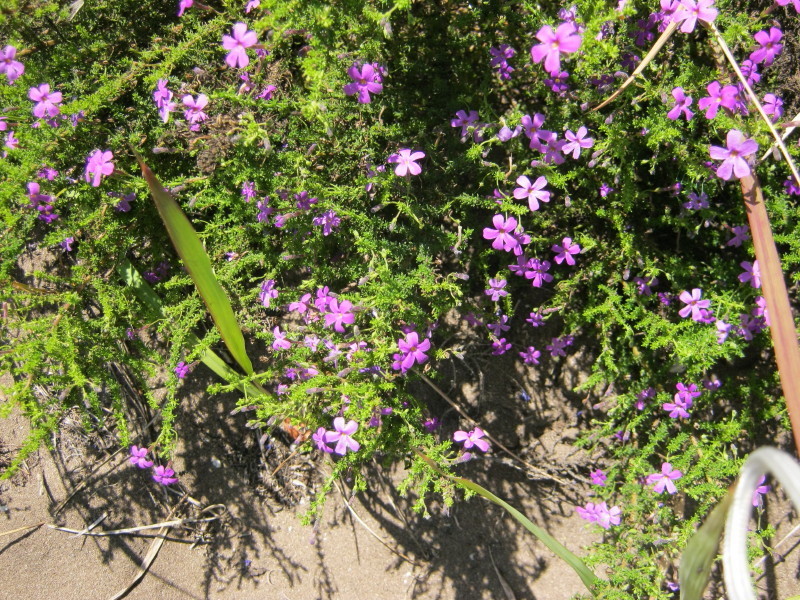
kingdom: Plantae
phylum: Tracheophyta
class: Magnoliopsida
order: Lamiales
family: Scrophulariaceae
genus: Jamesbrittenia
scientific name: Jamesbrittenia microphylla
